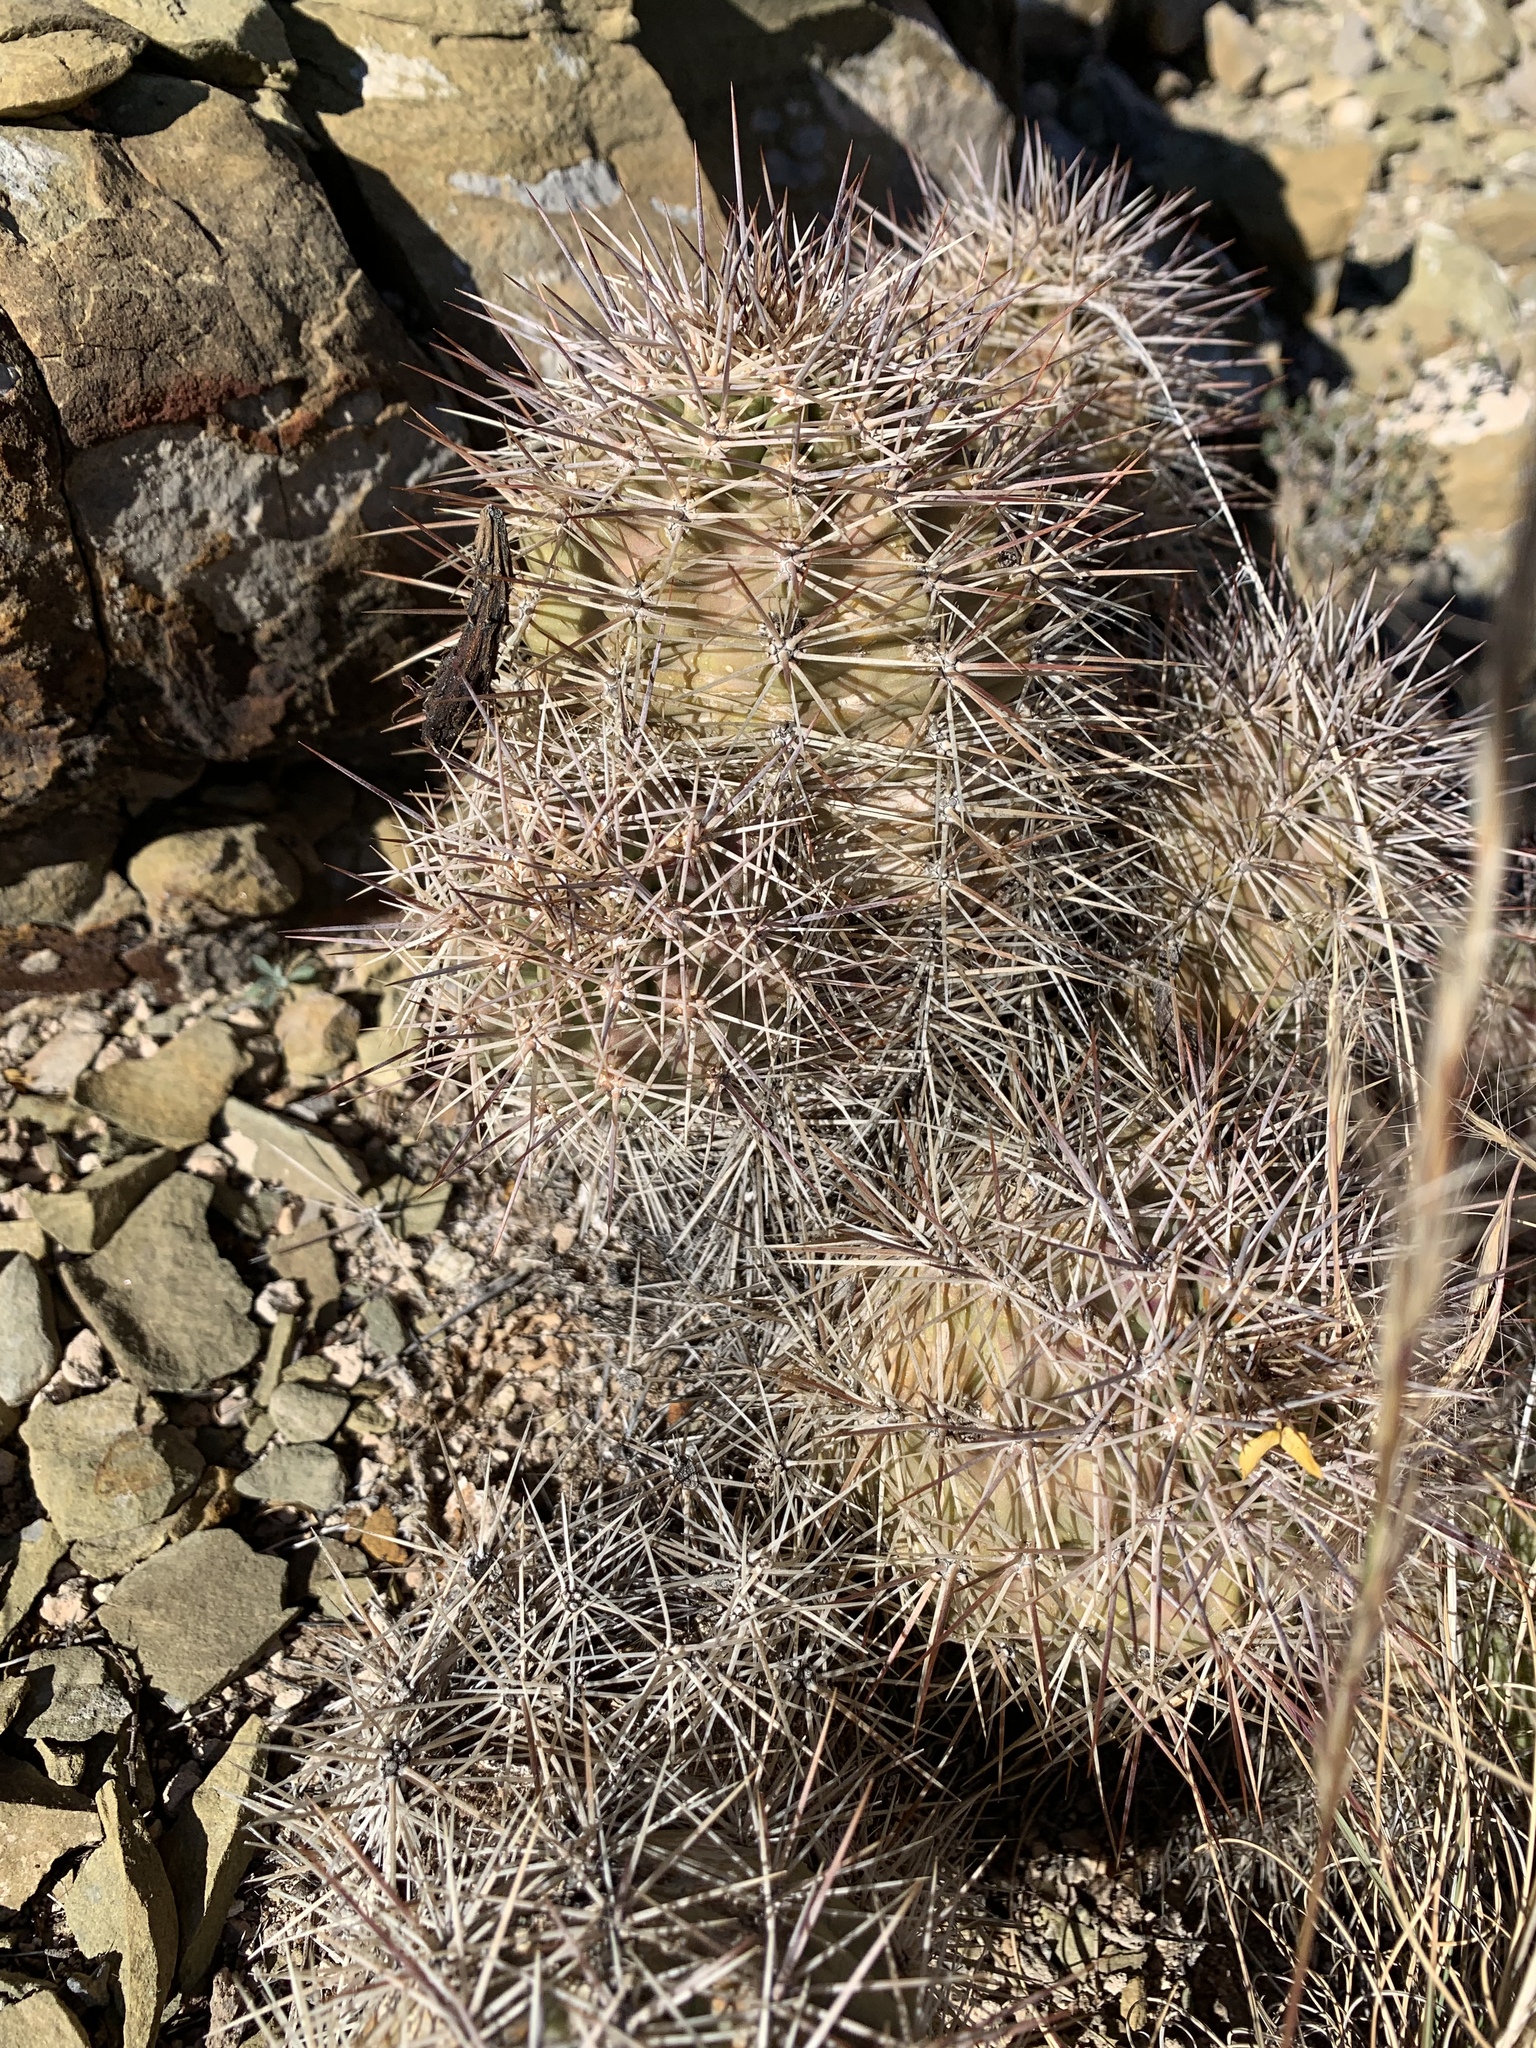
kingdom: Plantae
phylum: Tracheophyta
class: Magnoliopsida
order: Caryophyllales
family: Cactaceae
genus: Echinocereus
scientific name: Echinocereus coccineus
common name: Scarlet hedgehog cactus
